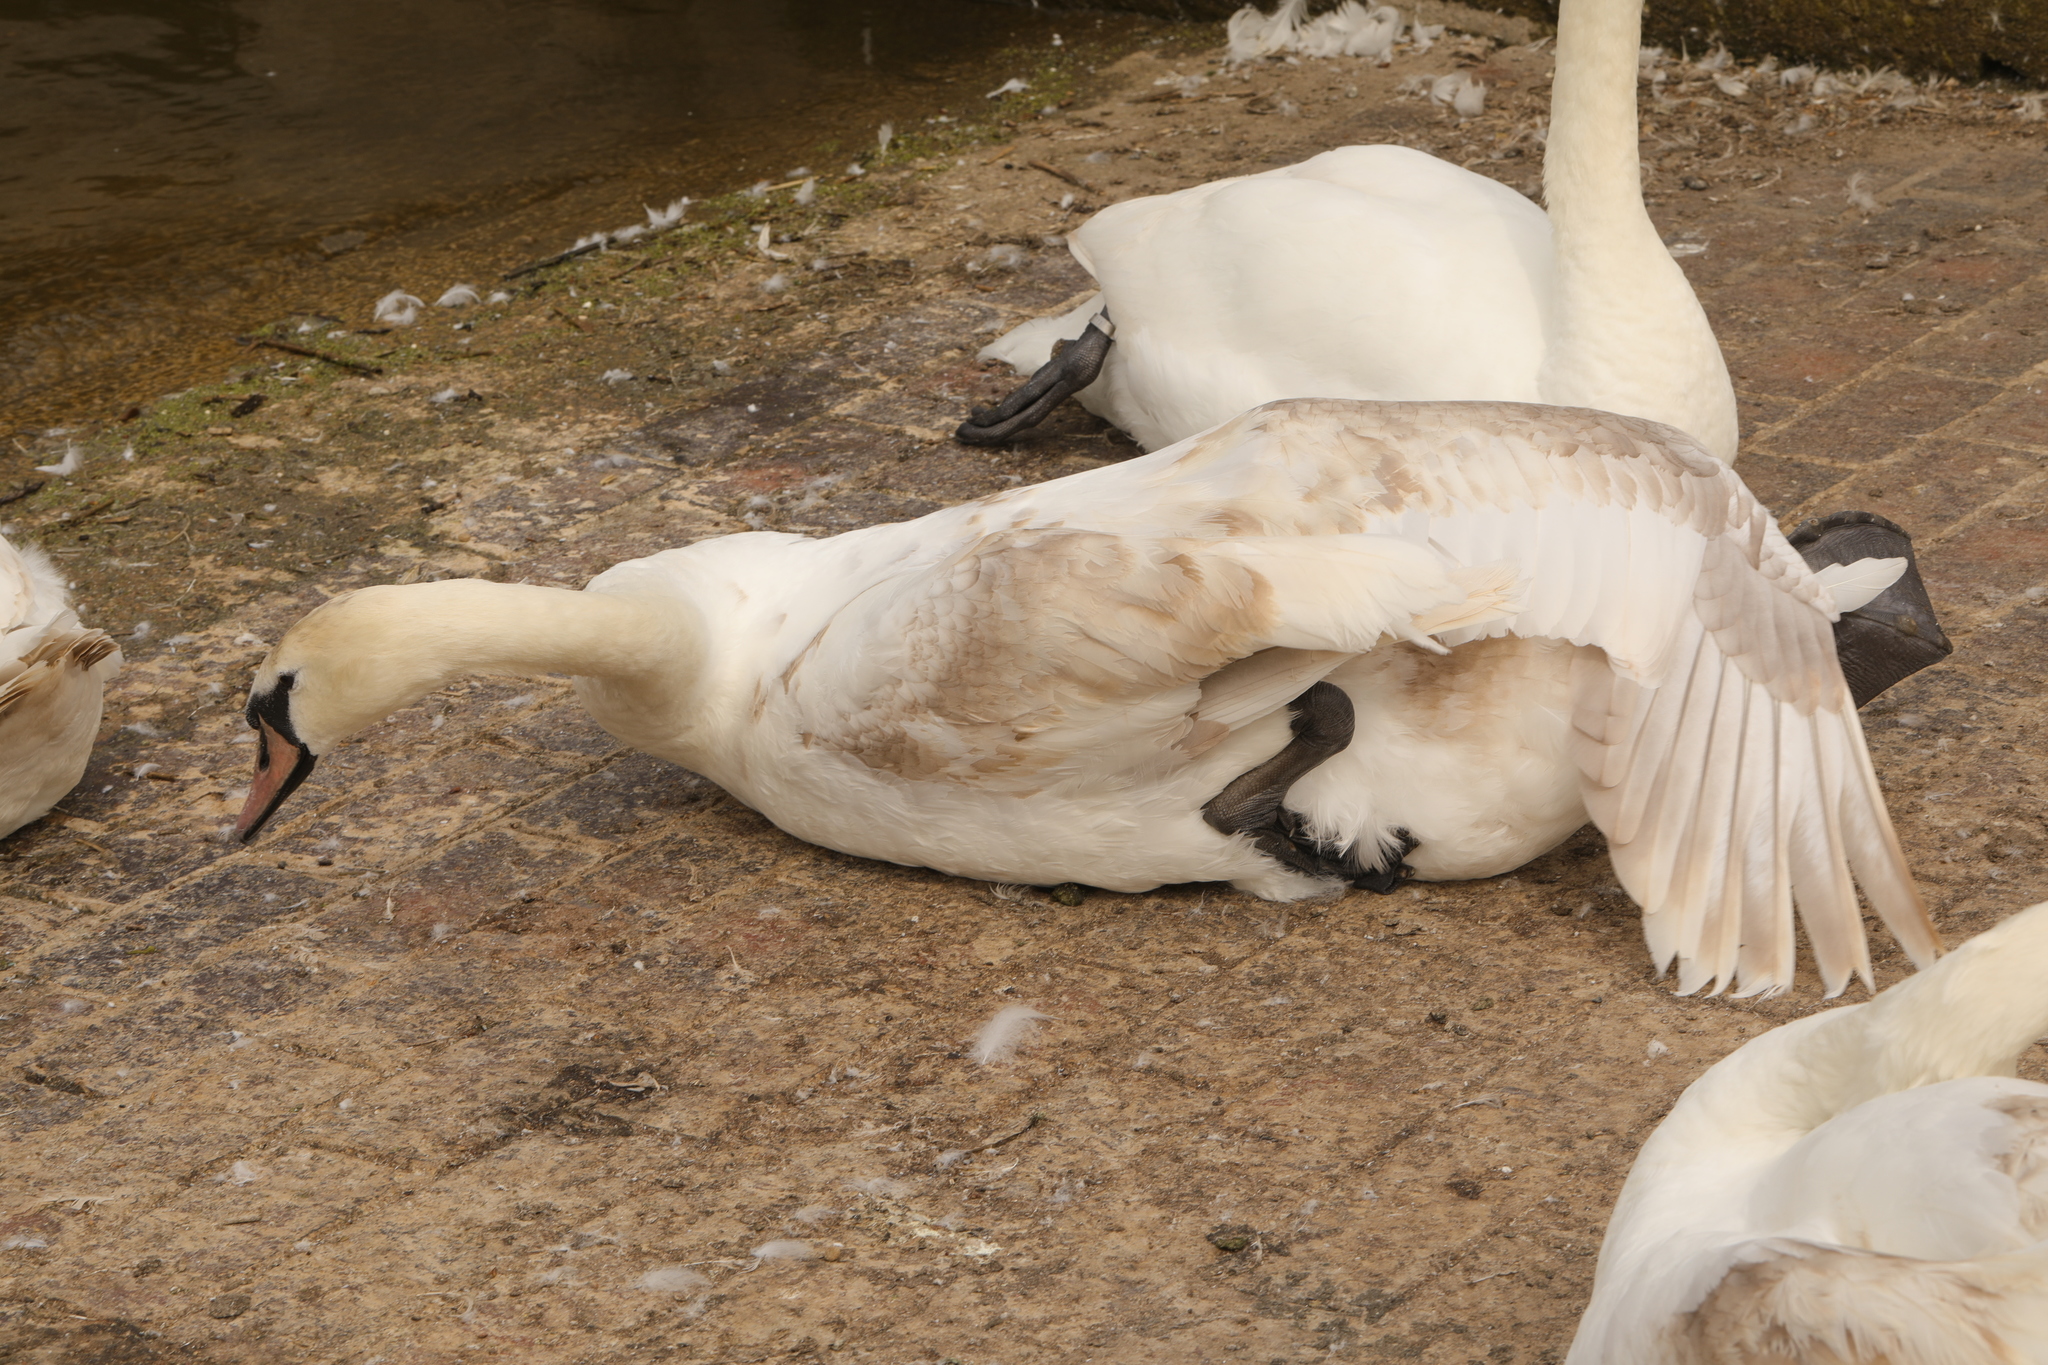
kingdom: Animalia
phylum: Chordata
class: Aves
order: Anseriformes
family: Anatidae
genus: Cygnus
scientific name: Cygnus olor
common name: Mute swan
